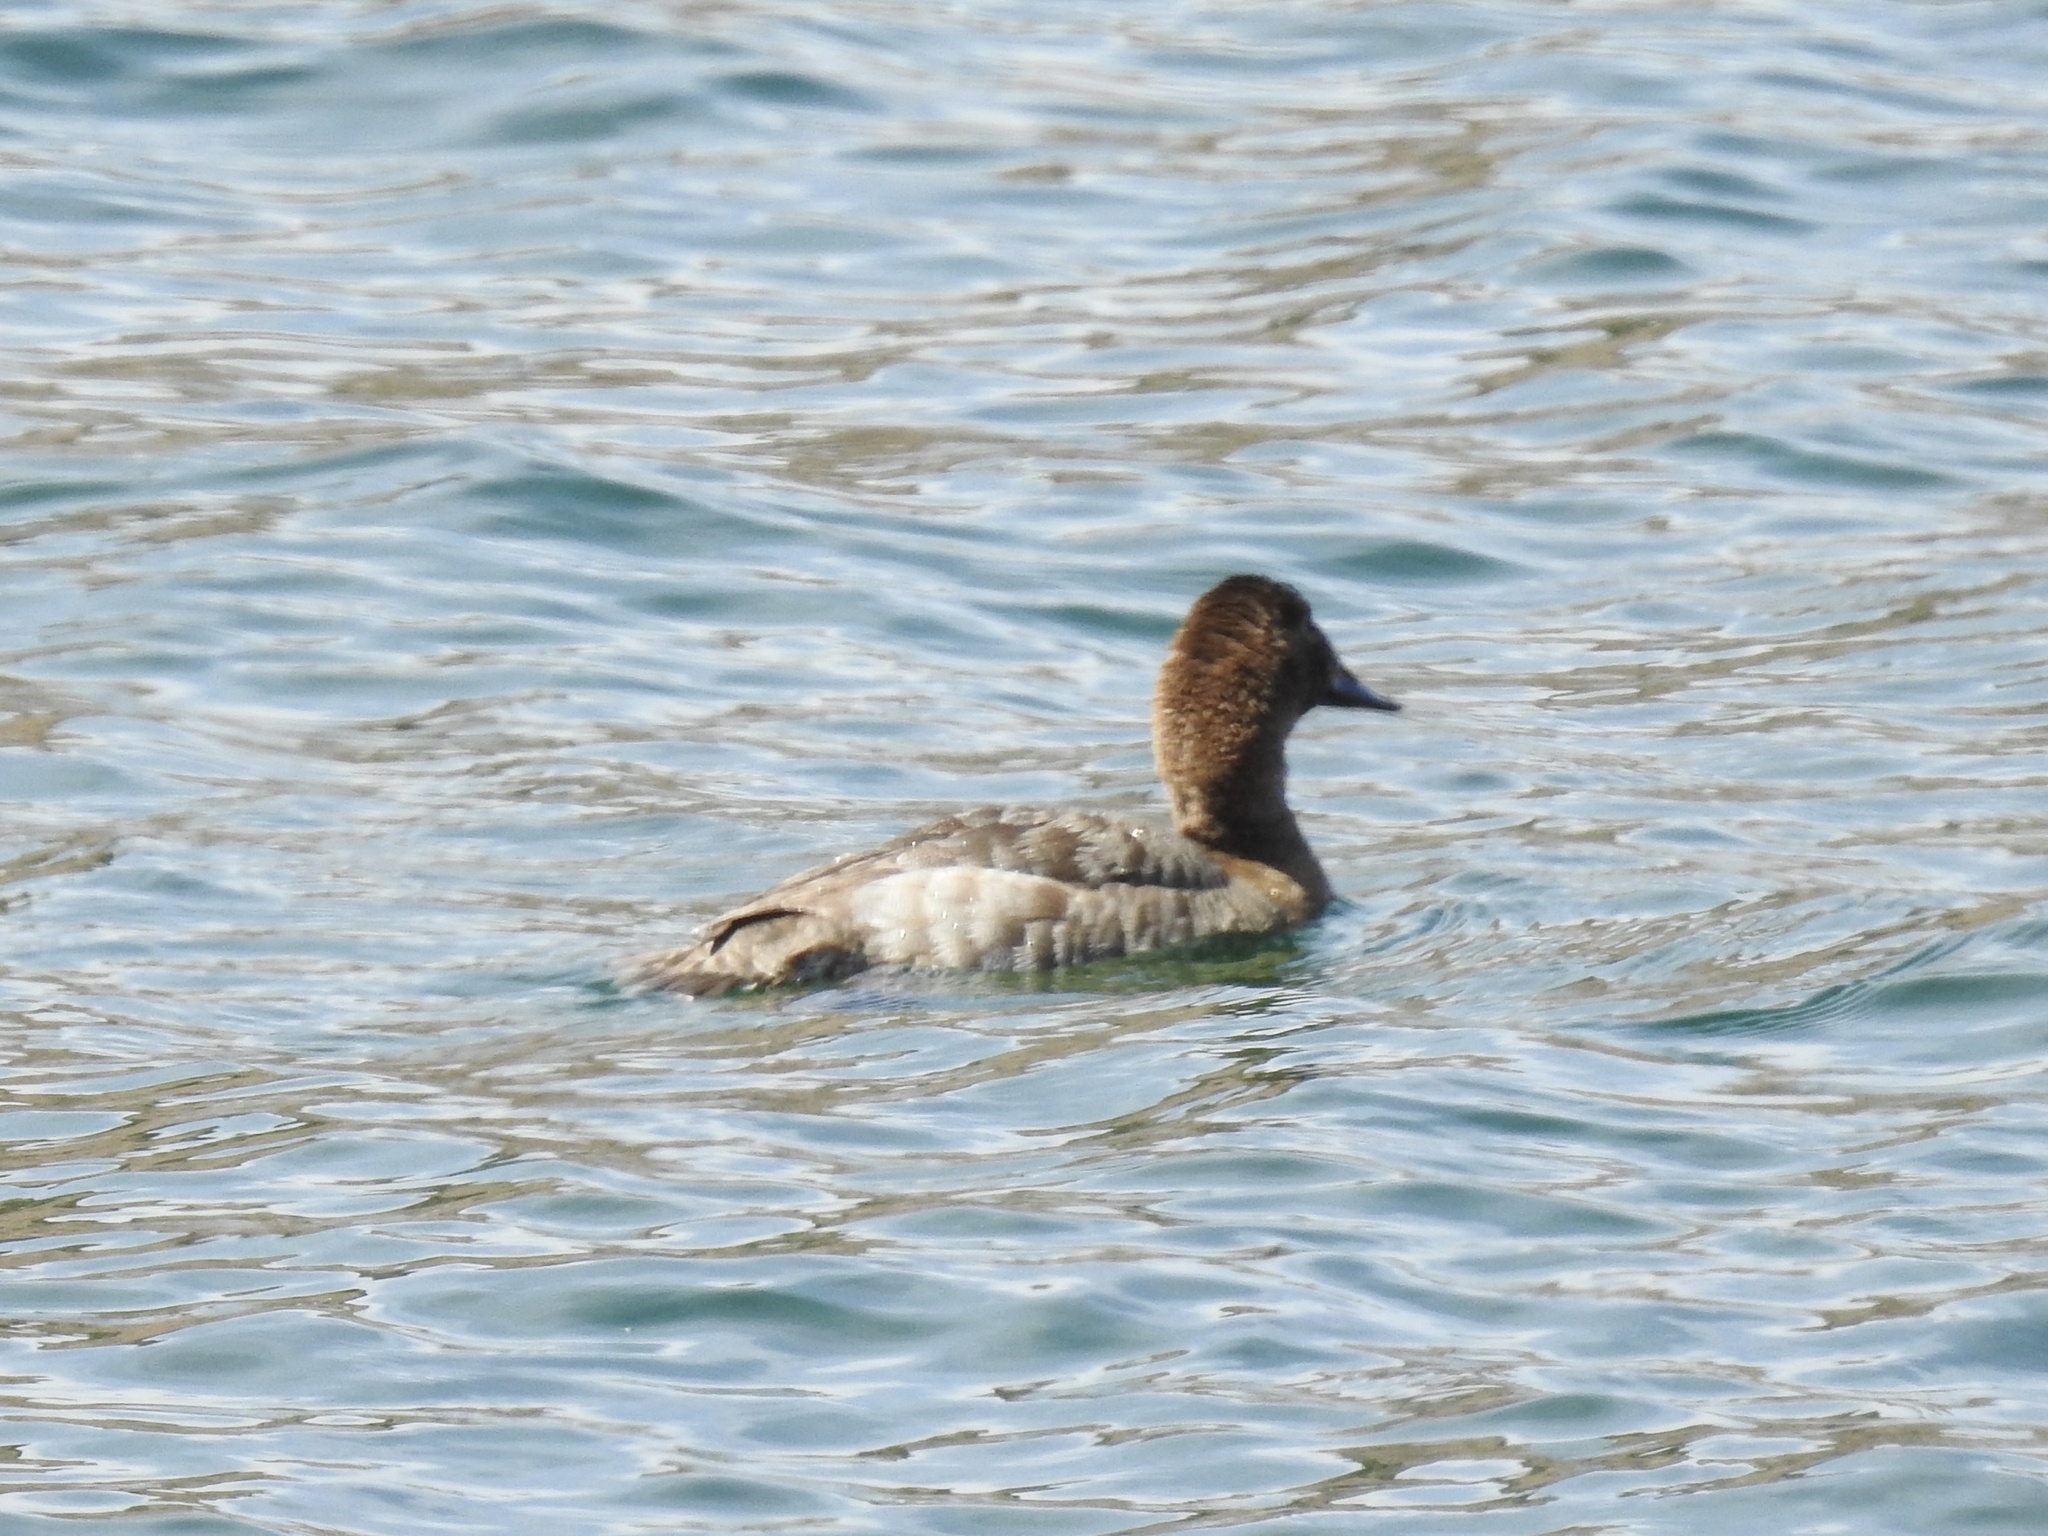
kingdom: Animalia
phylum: Chordata
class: Aves
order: Anseriformes
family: Anatidae
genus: Aythya
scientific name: Aythya valisineria
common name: Canvasback
